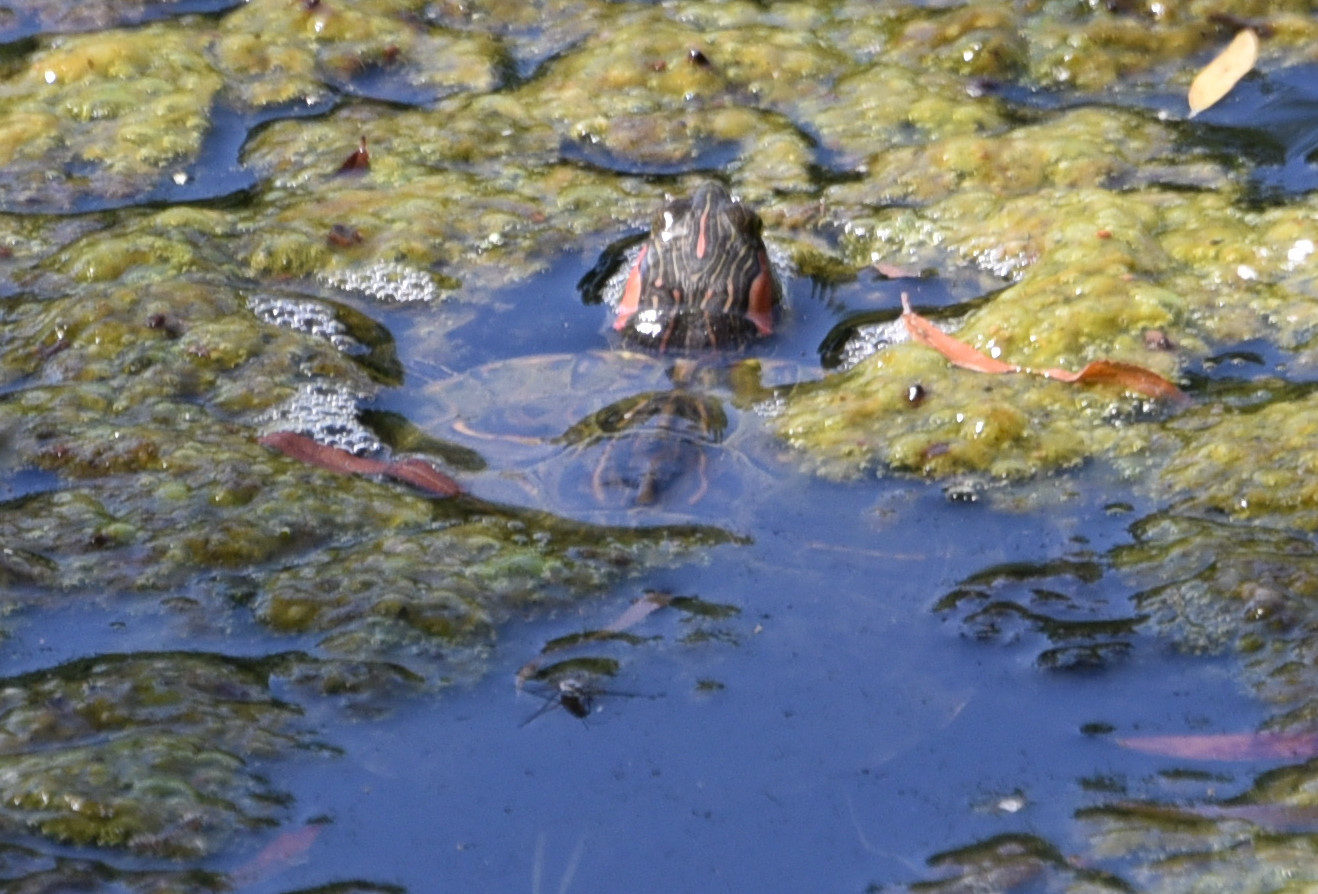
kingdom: Animalia
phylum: Chordata
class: Testudines
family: Emydidae
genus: Trachemys
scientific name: Trachemys scripta
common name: Slider
